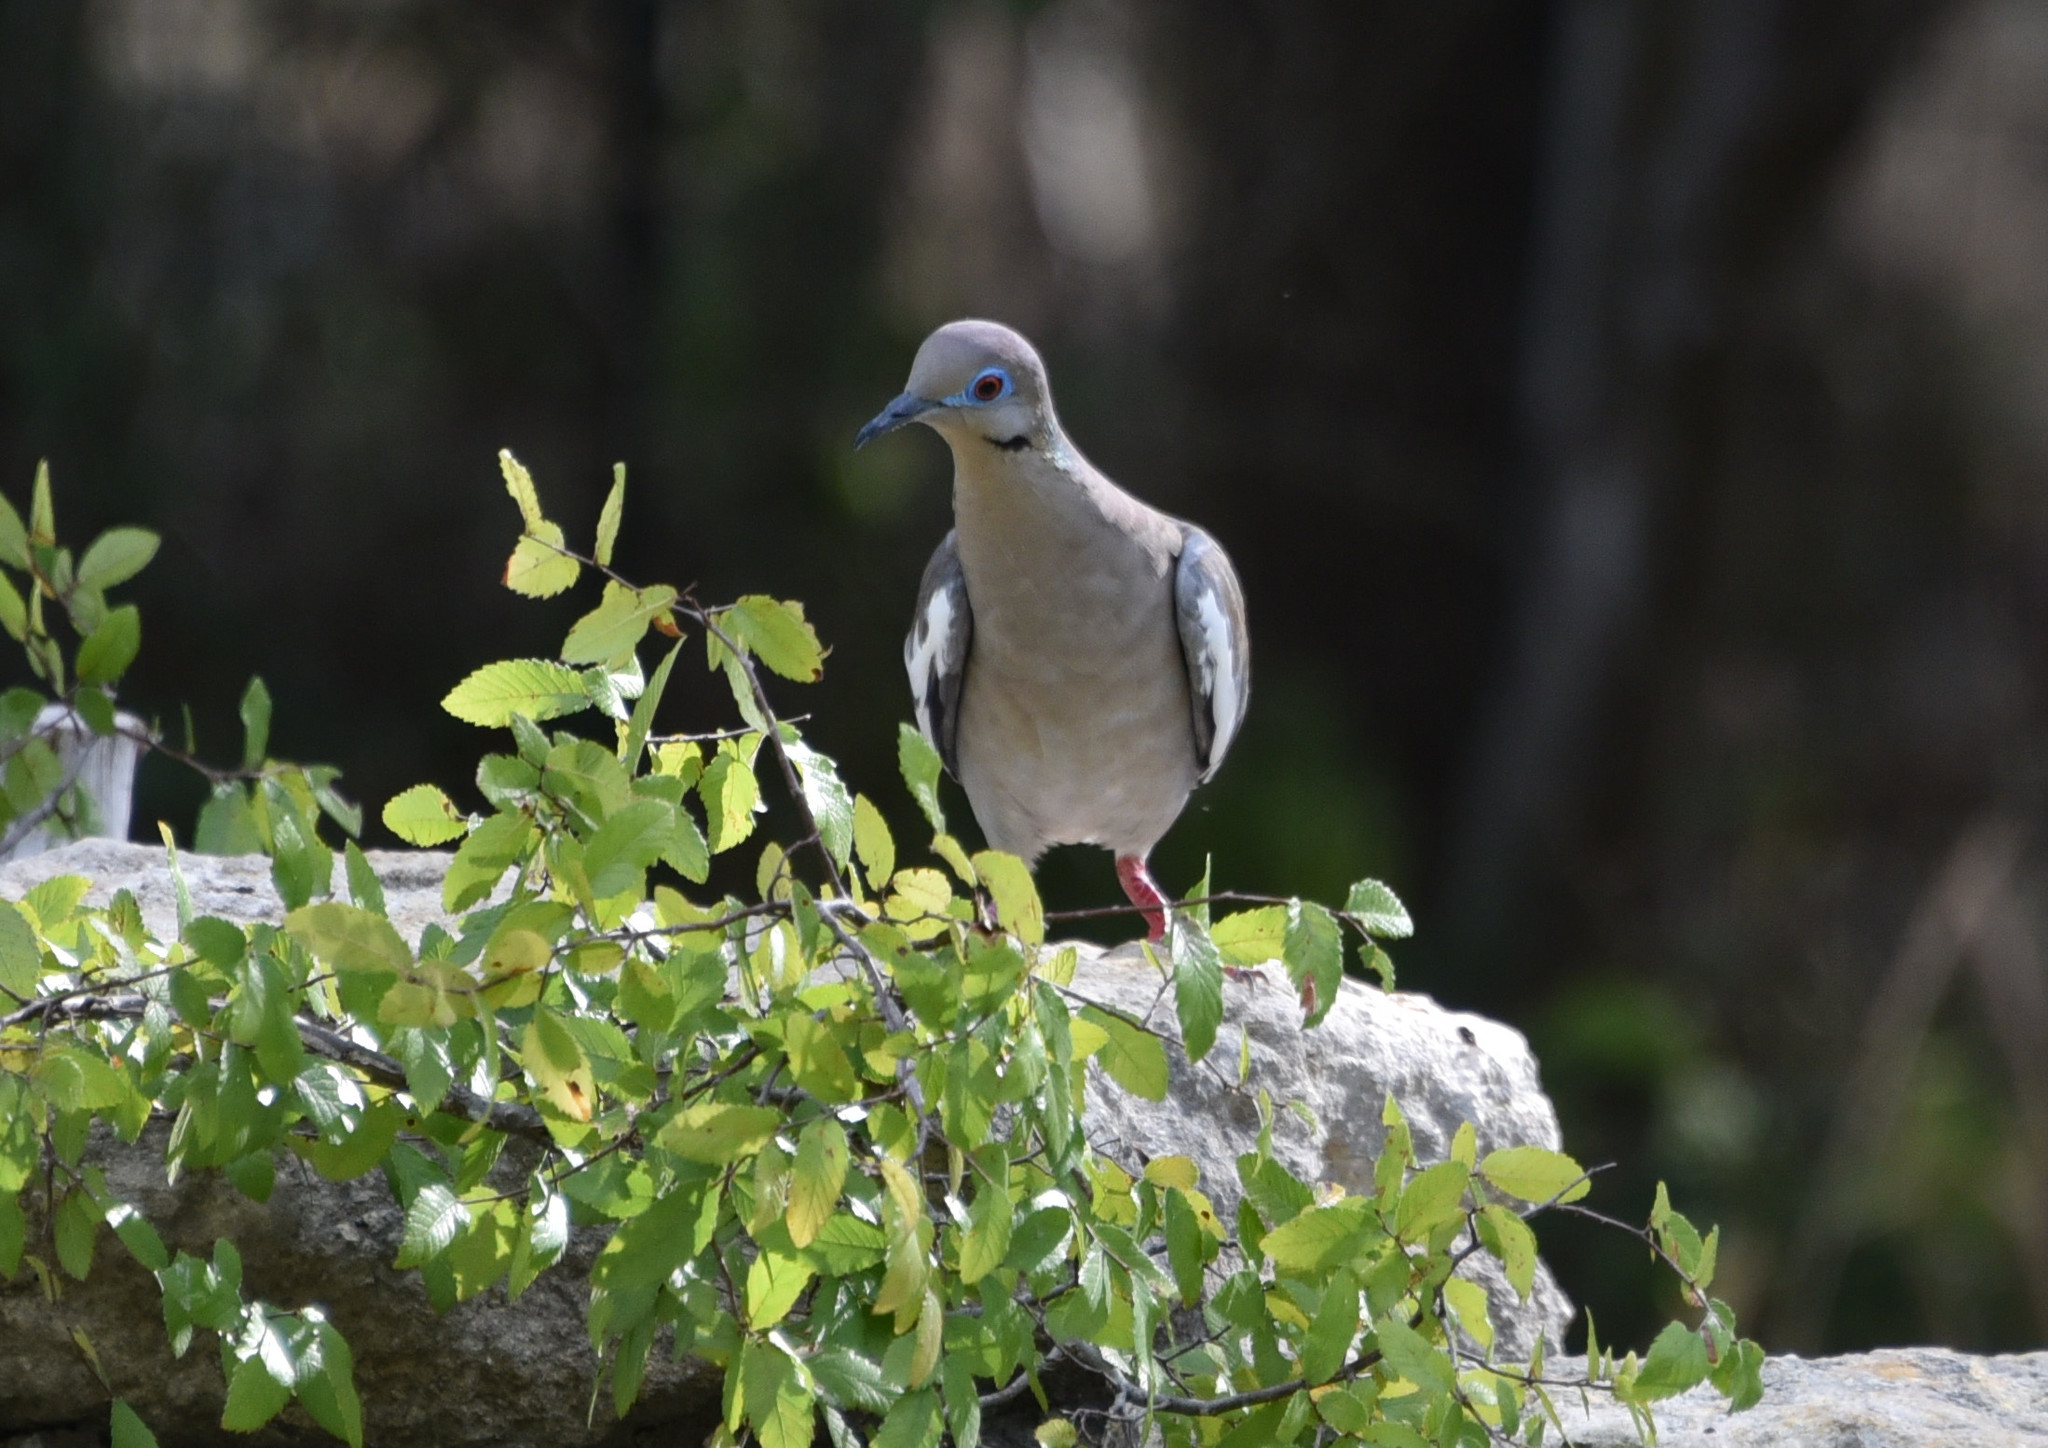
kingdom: Animalia
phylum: Chordata
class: Aves
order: Columbiformes
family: Columbidae
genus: Zenaida
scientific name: Zenaida asiatica
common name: White-winged dove
